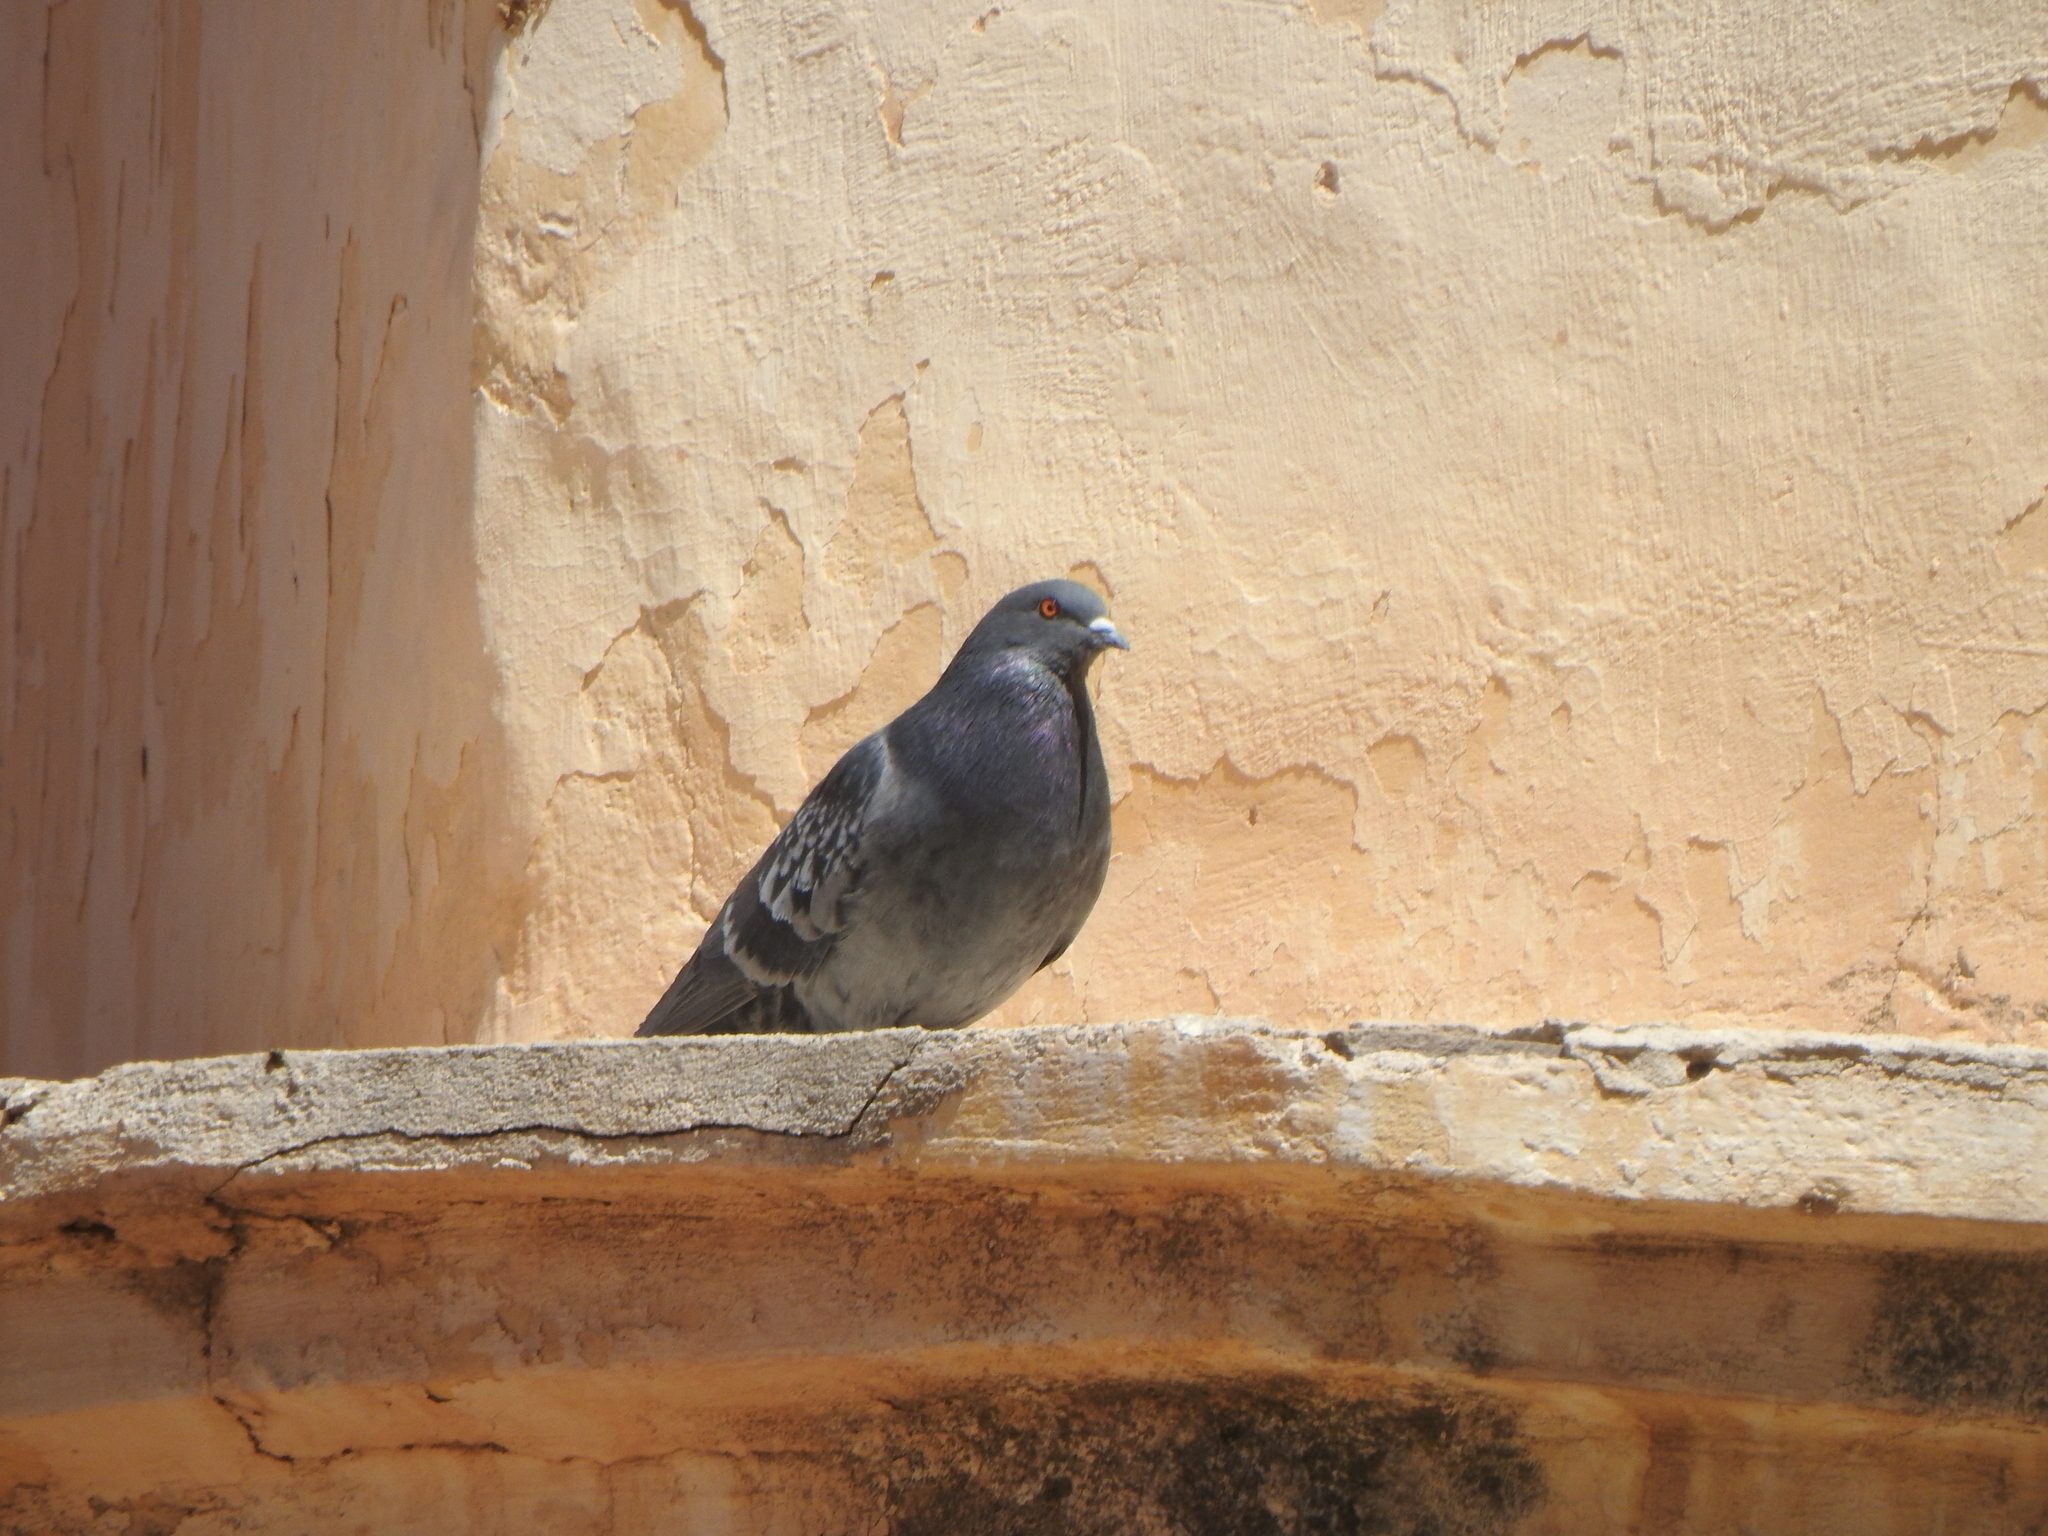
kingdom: Animalia
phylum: Chordata
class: Aves
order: Columbiformes
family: Columbidae
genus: Columba
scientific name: Columba livia
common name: Rock pigeon
